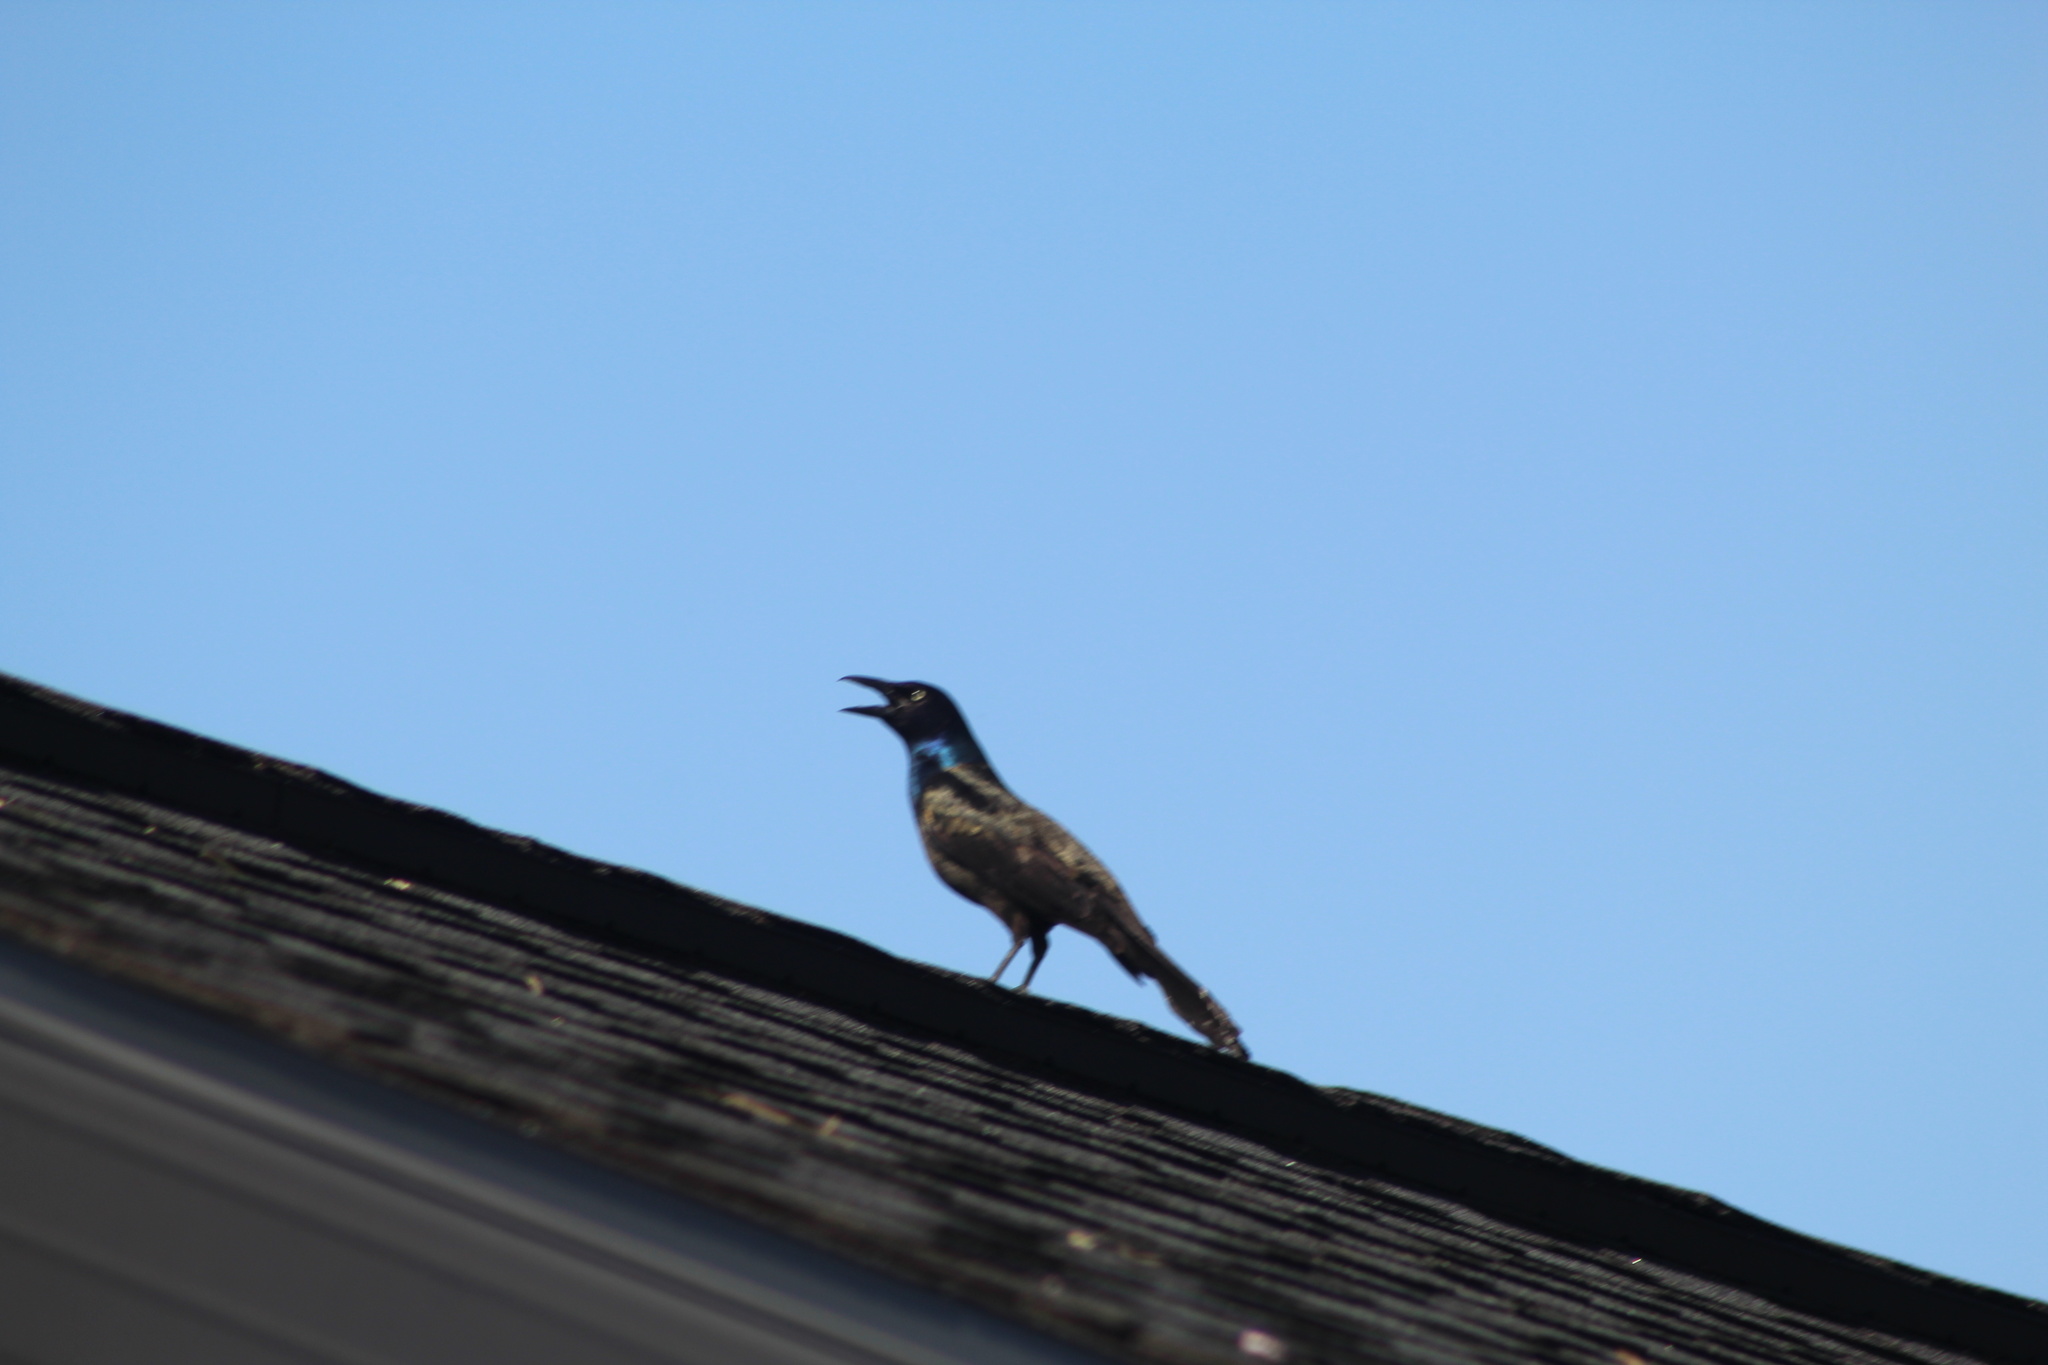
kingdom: Animalia
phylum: Chordata
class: Aves
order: Passeriformes
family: Icteridae
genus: Quiscalus
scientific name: Quiscalus quiscula
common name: Common grackle
